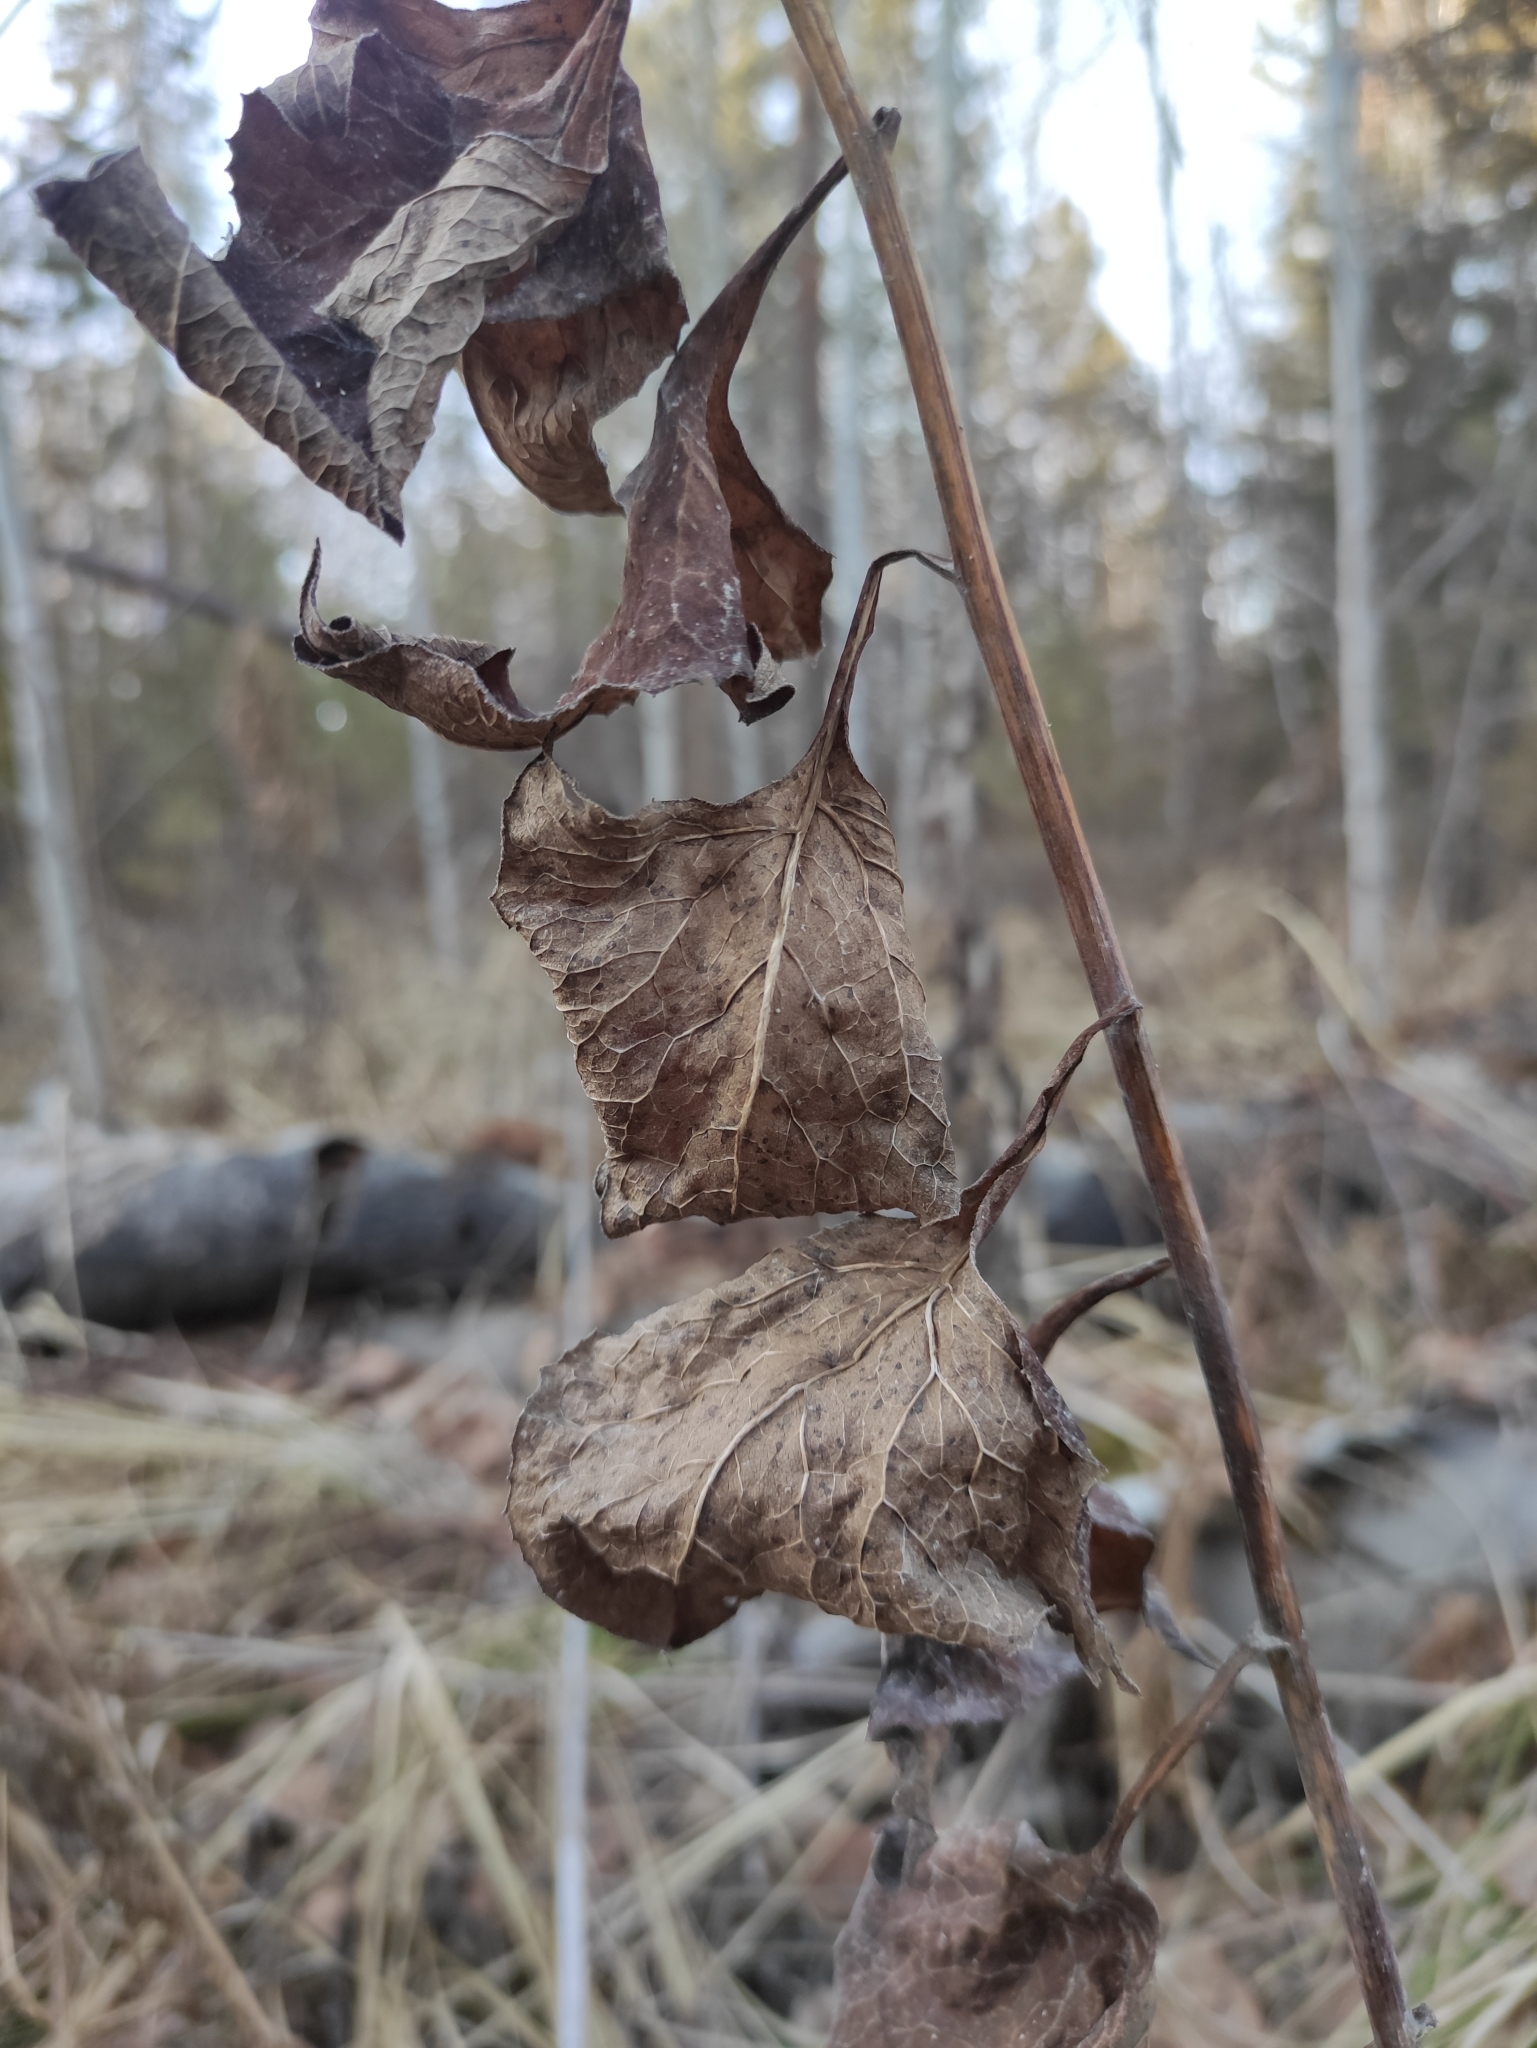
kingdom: Plantae
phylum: Tracheophyta
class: Magnoliopsida
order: Asterales
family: Asteraceae
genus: Parasenecio
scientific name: Parasenecio hastatus
